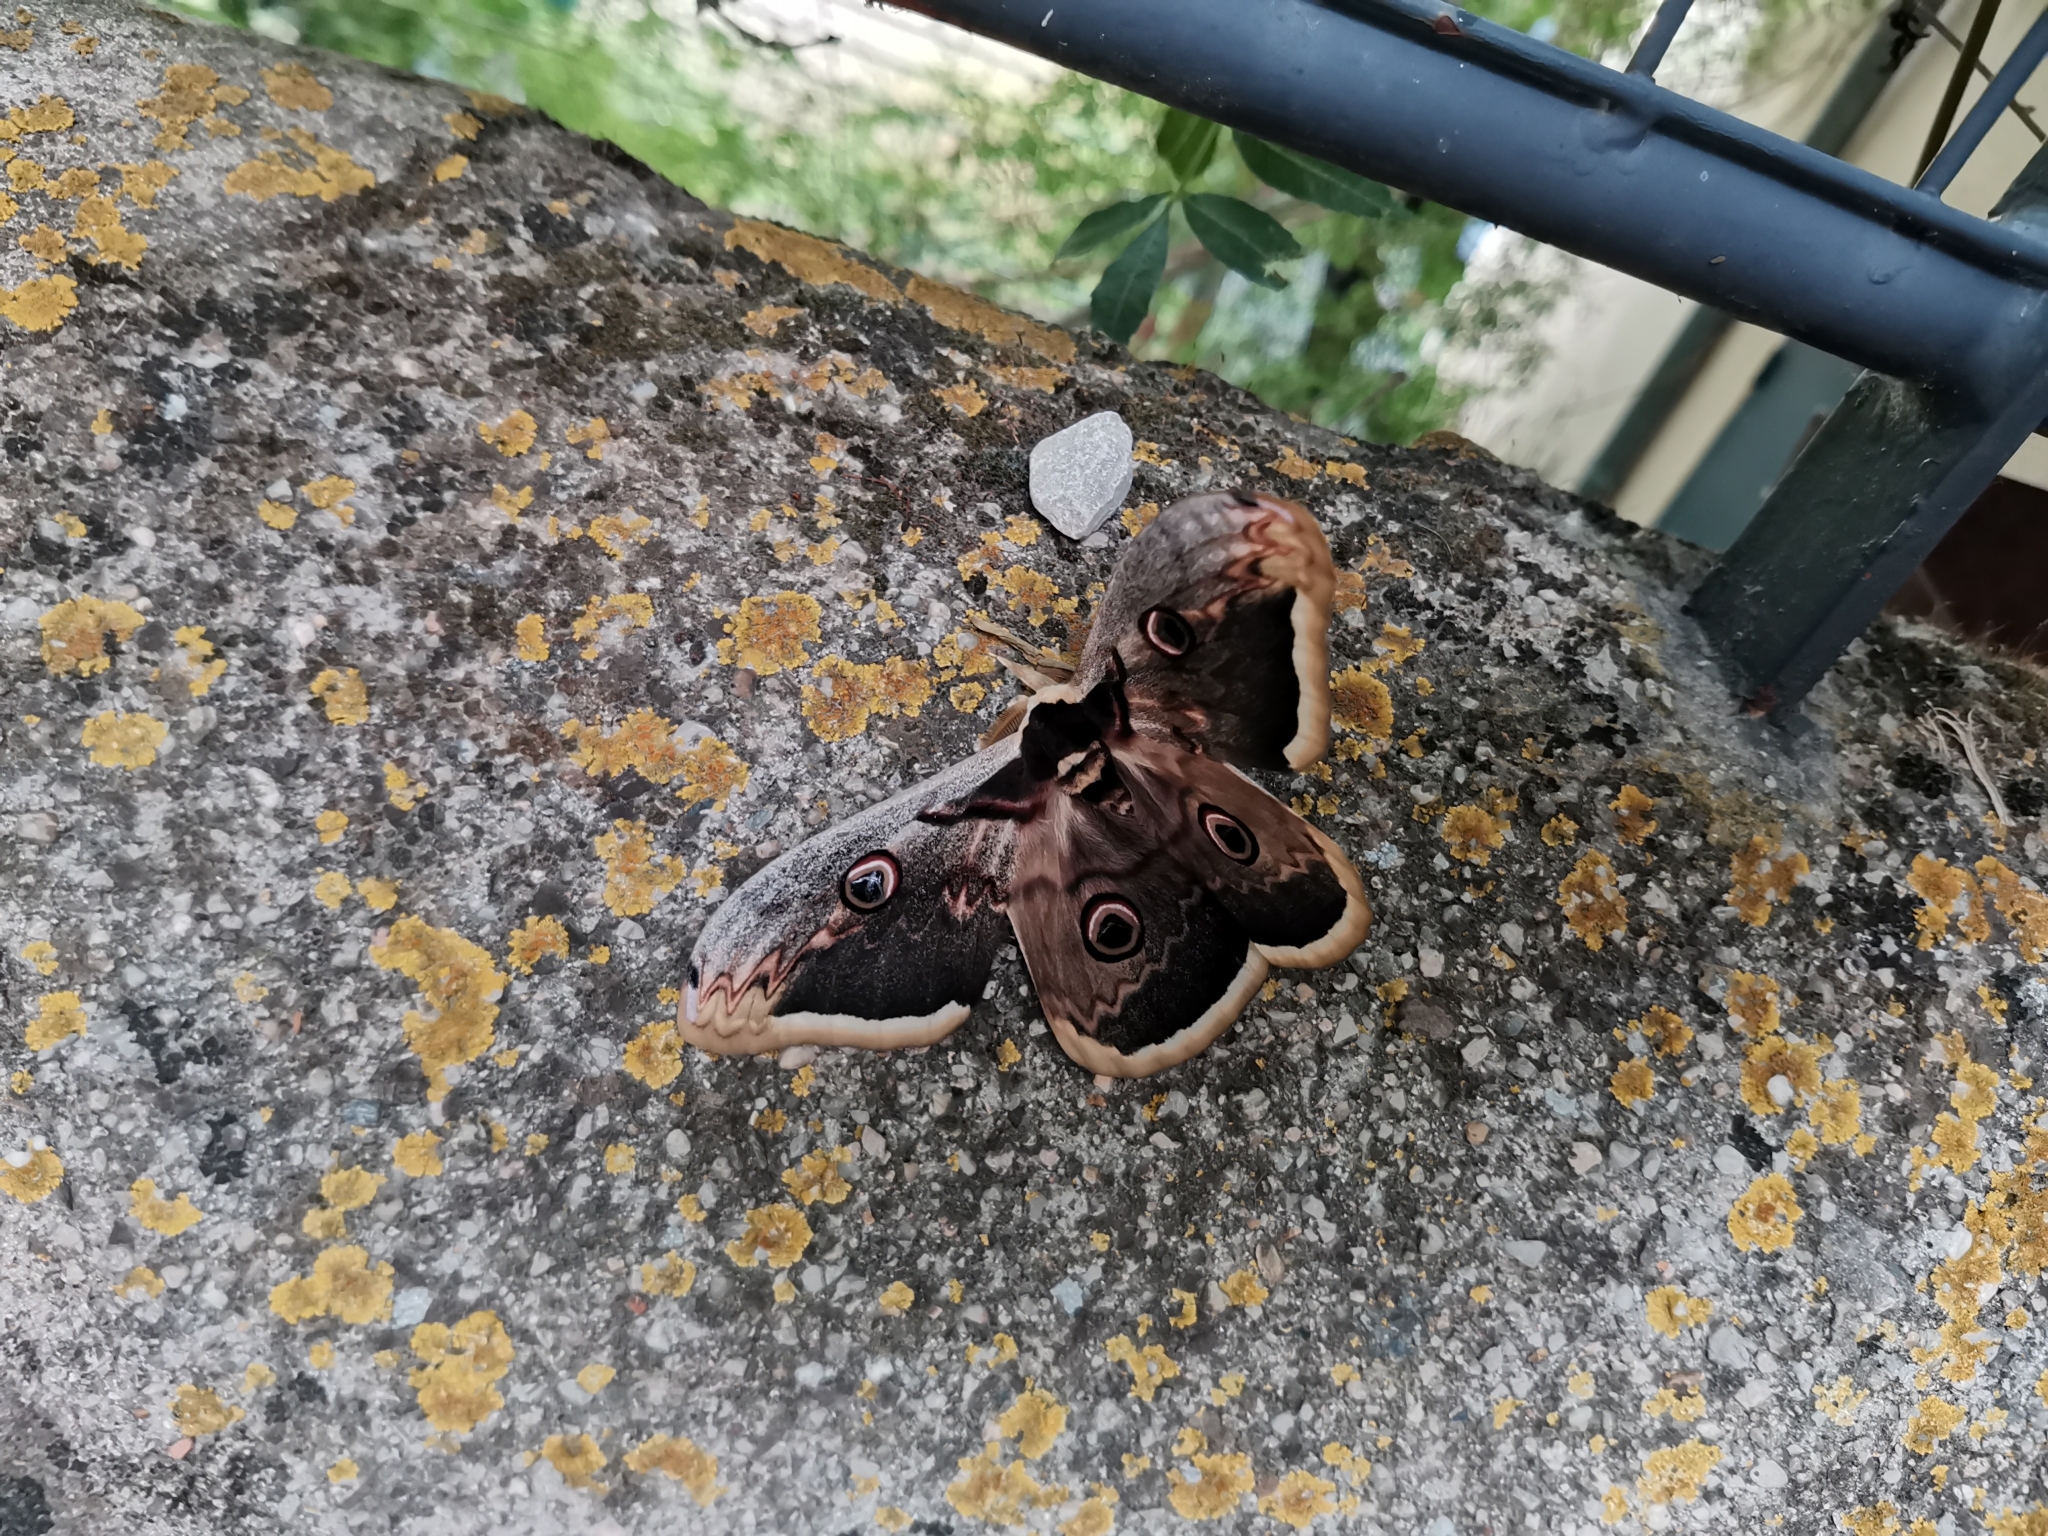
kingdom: Animalia
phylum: Arthropoda
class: Insecta
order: Lepidoptera
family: Saturniidae
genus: Saturnia
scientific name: Saturnia pyri
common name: Great peacock moth
